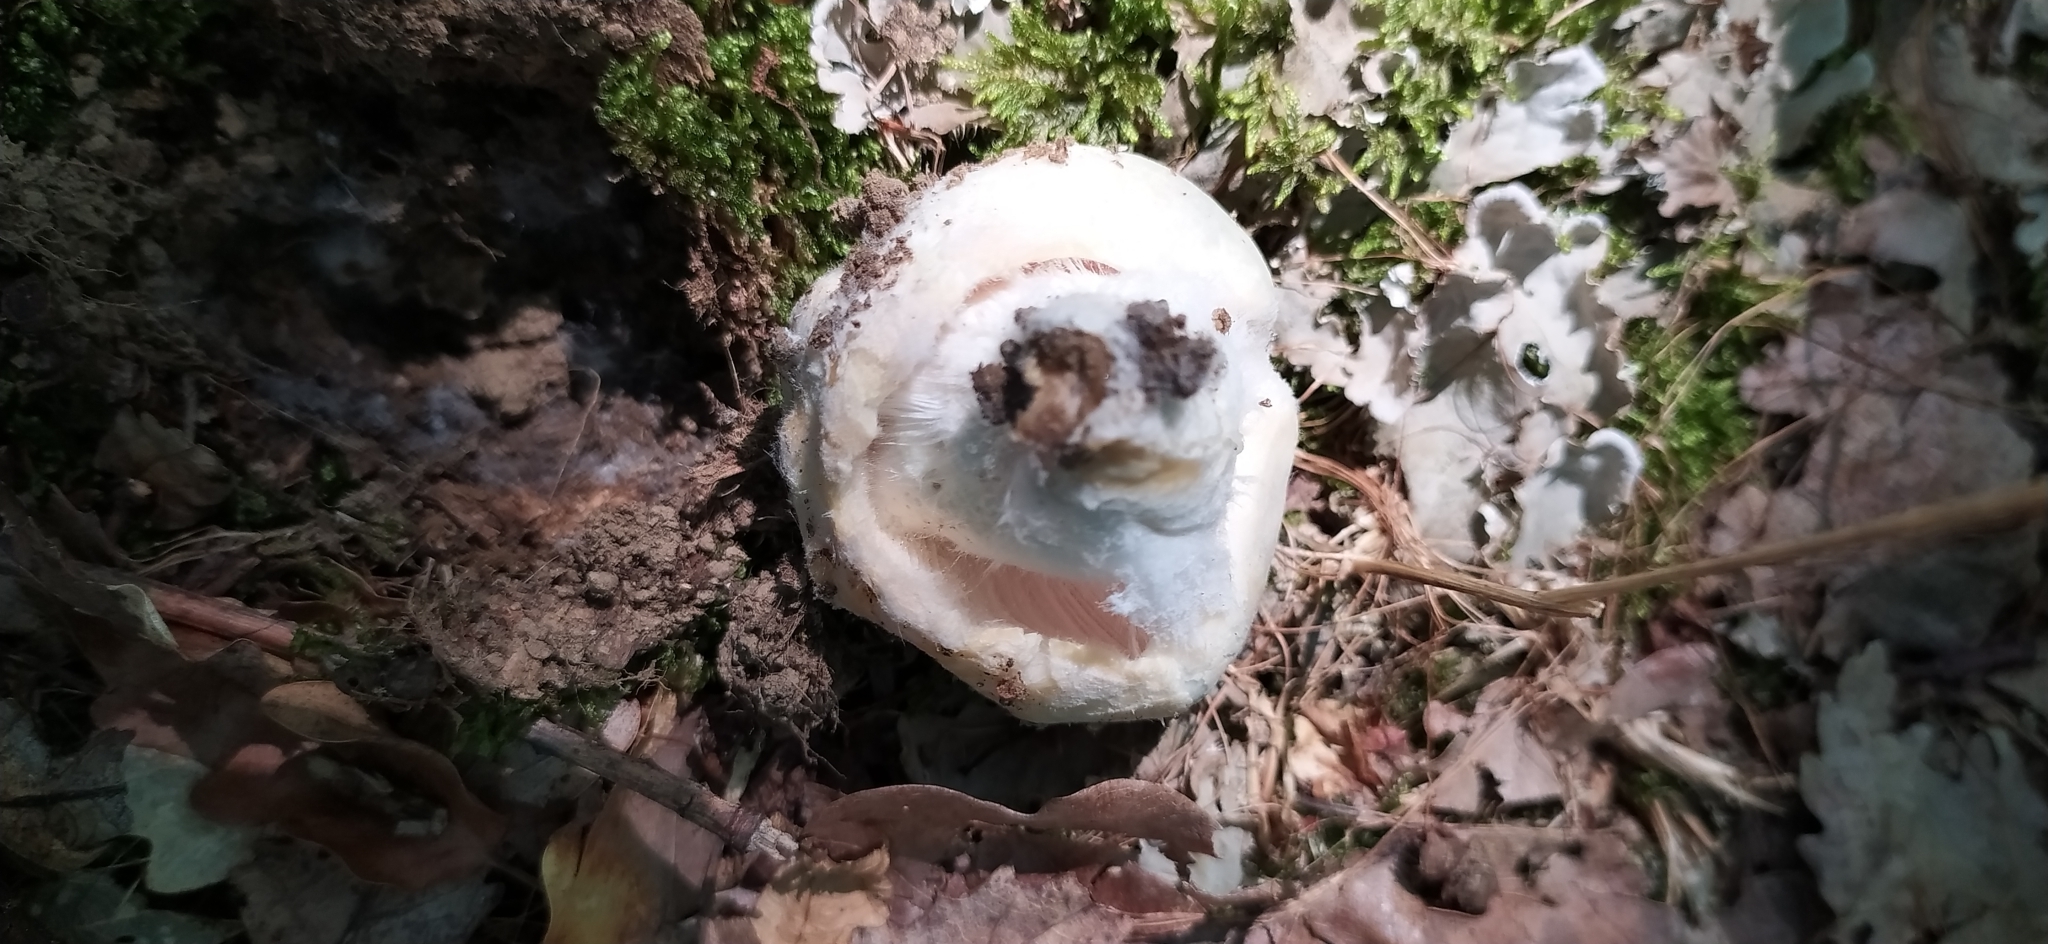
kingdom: Fungi
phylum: Basidiomycota
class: Agaricomycetes
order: Russulales
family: Russulaceae
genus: Russula
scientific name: Russula virescens
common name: Greencracked brittlegill
